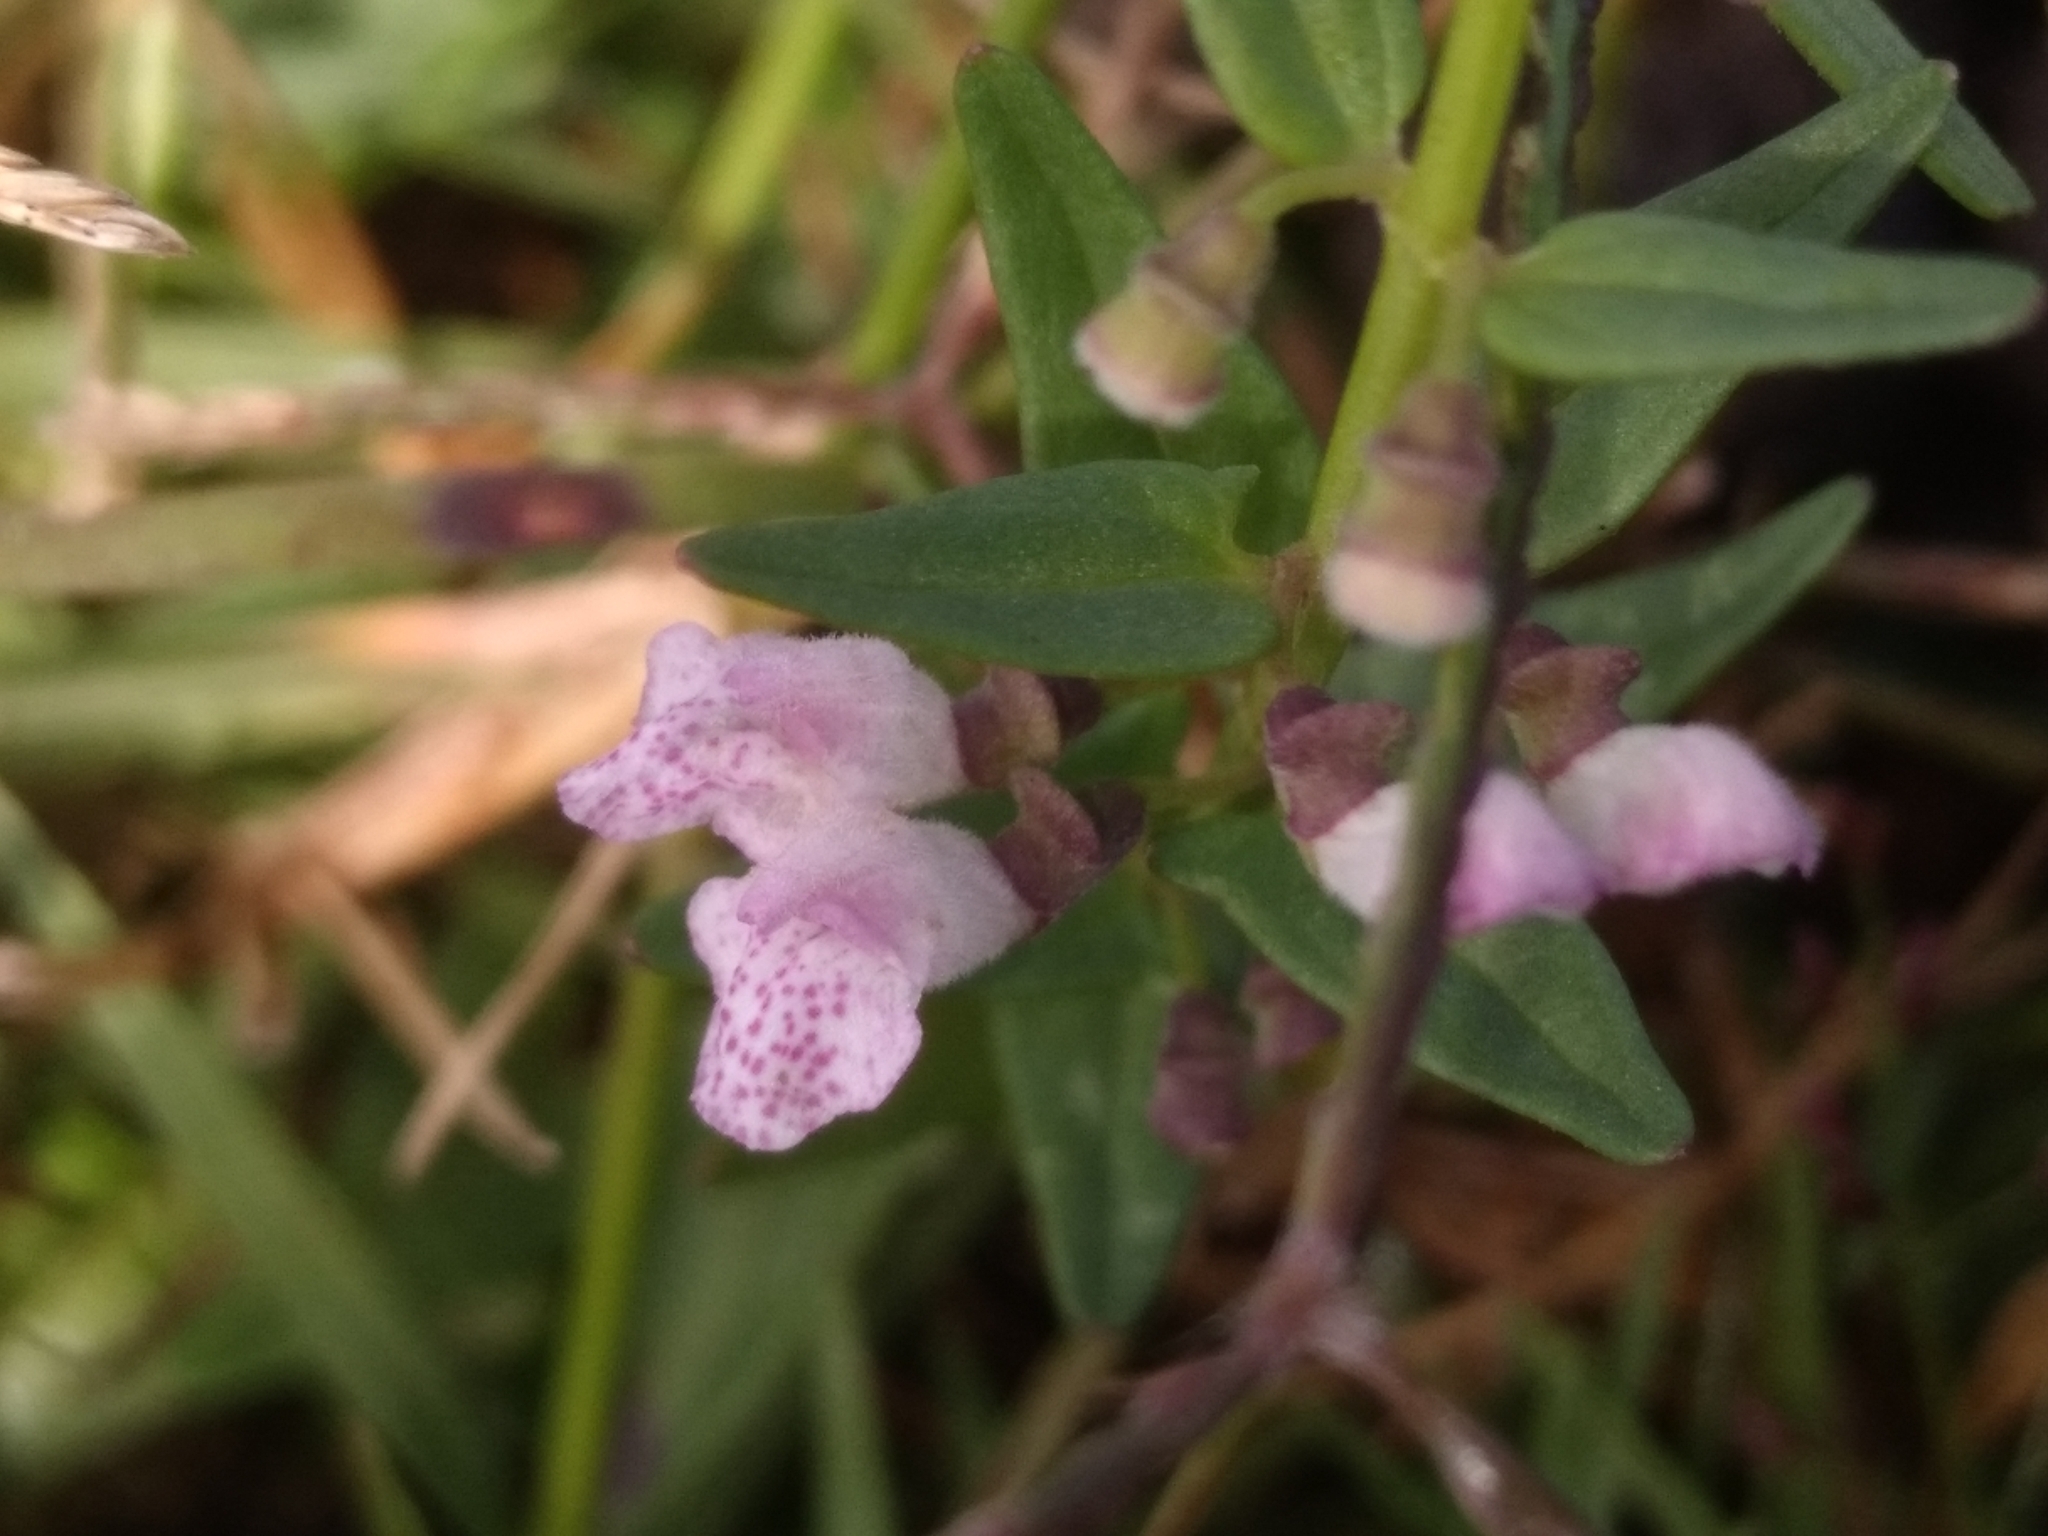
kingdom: Plantae
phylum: Tracheophyta
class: Magnoliopsida
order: Lamiales
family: Lamiaceae
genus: Scutellaria
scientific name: Scutellaria racemosa
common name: South american skullcap
